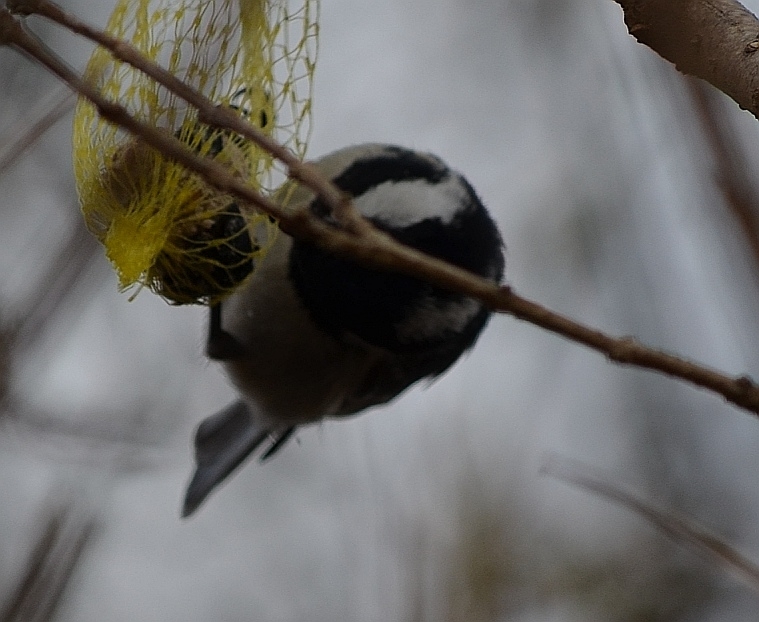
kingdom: Animalia
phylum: Chordata
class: Aves
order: Passeriformes
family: Paridae
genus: Periparus
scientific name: Periparus ater
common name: Coal tit
